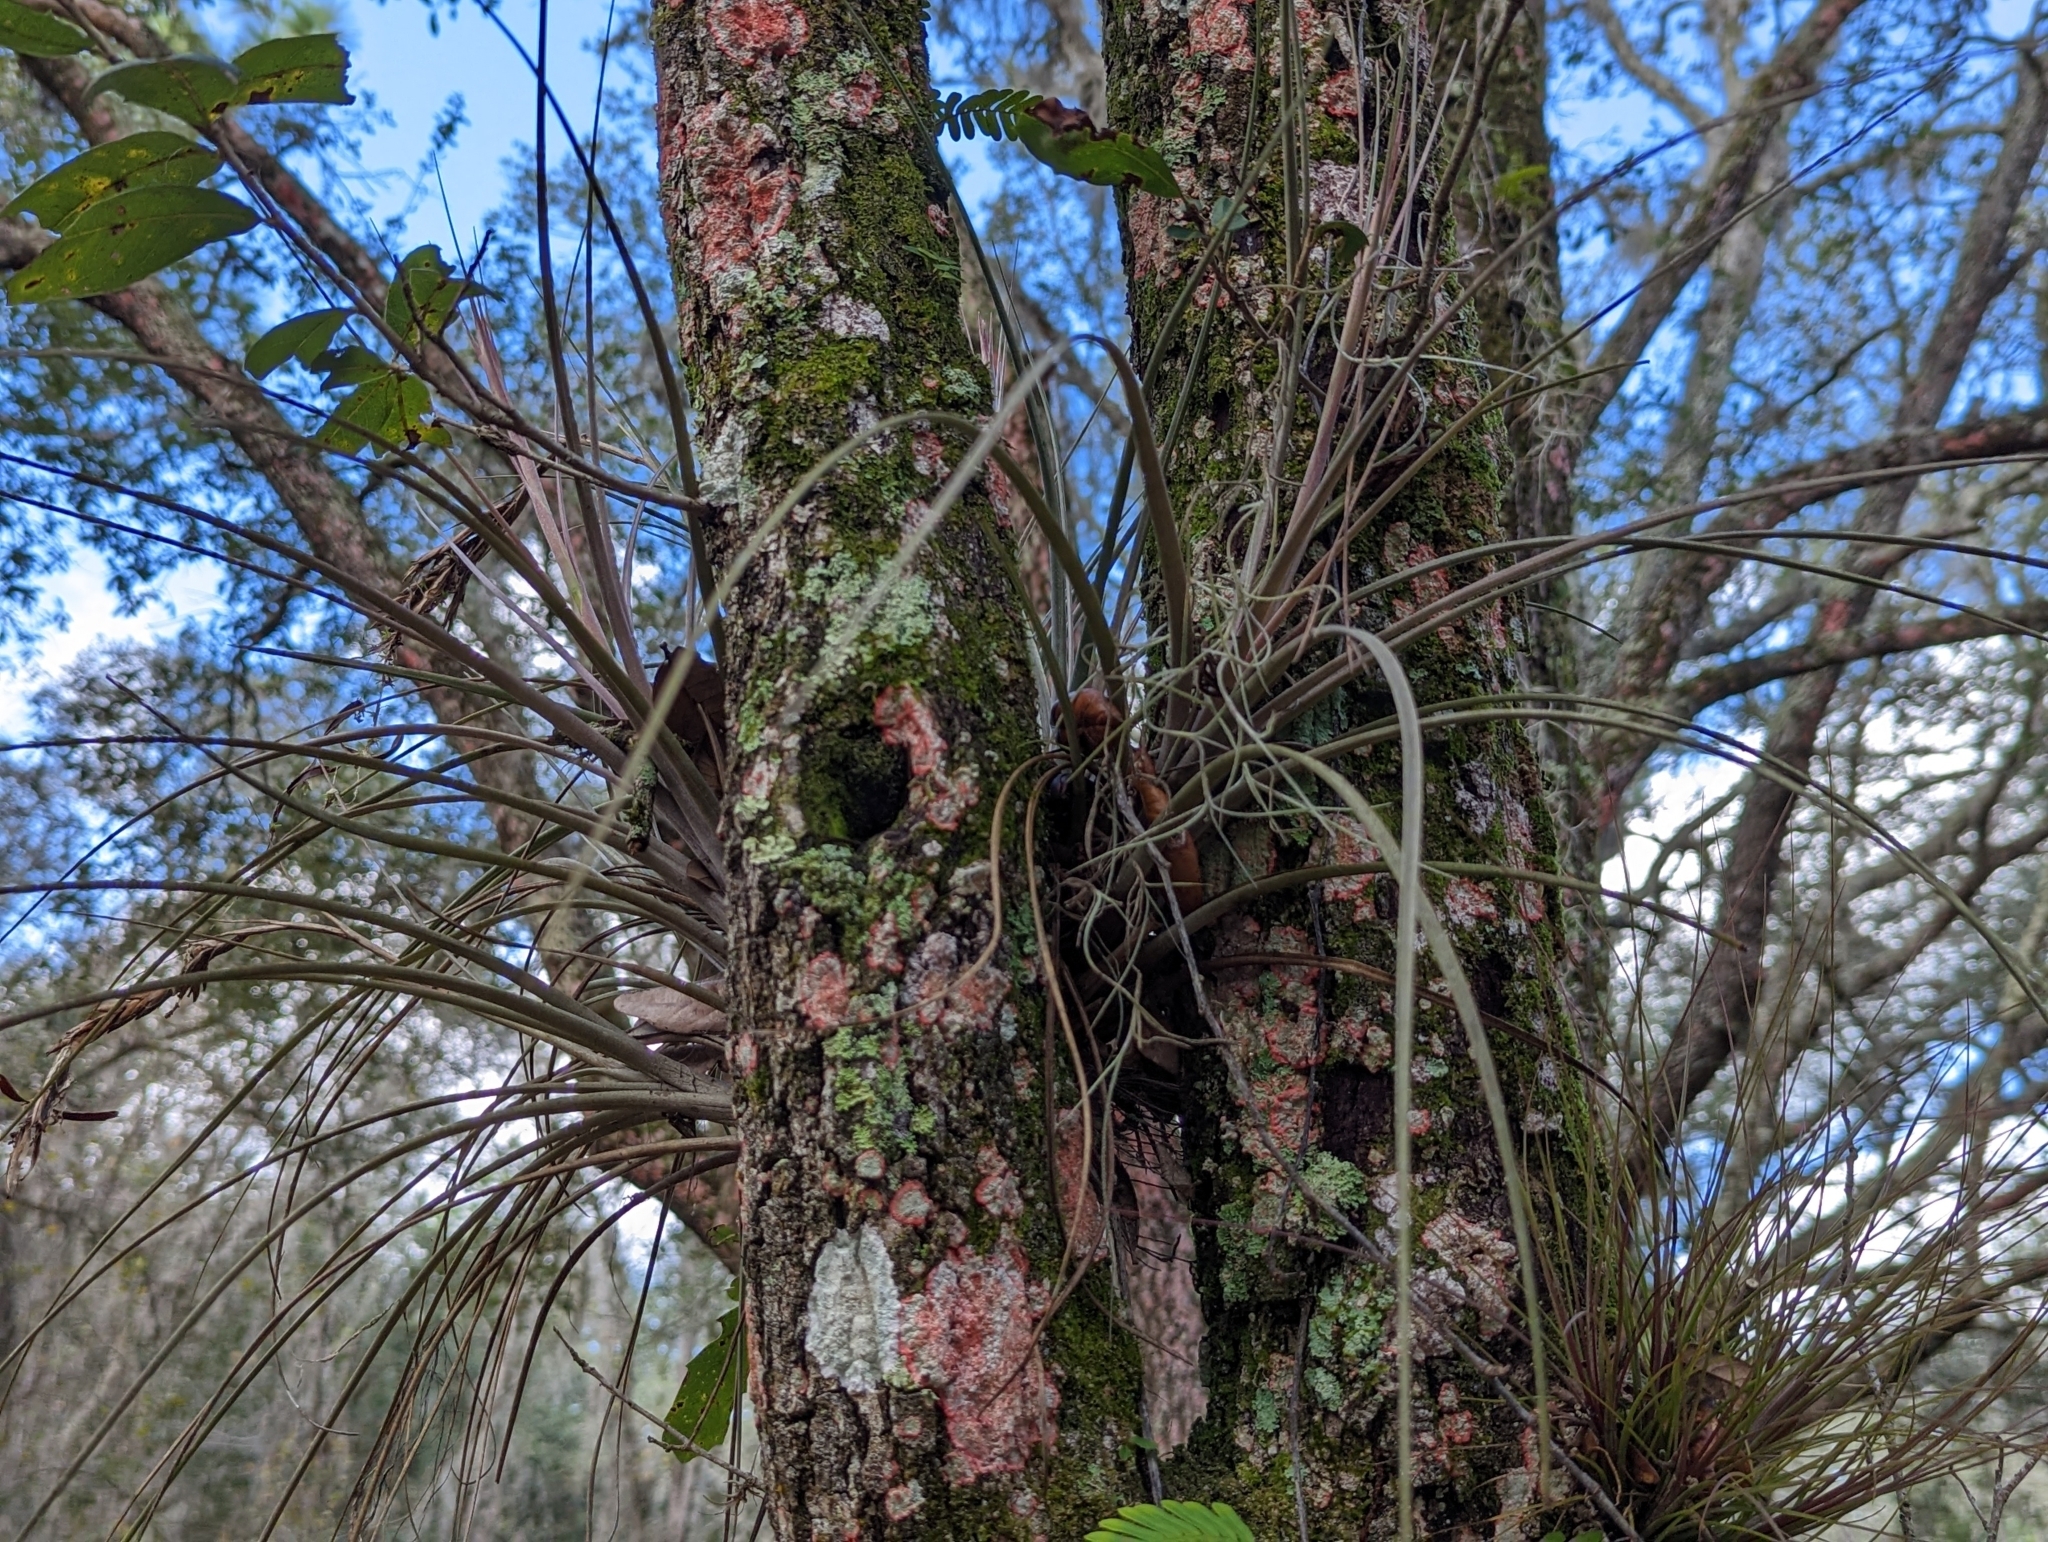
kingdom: Plantae
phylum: Tracheophyta
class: Liliopsida
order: Poales
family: Bromeliaceae
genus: Tillandsia
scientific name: Tillandsia floridana
